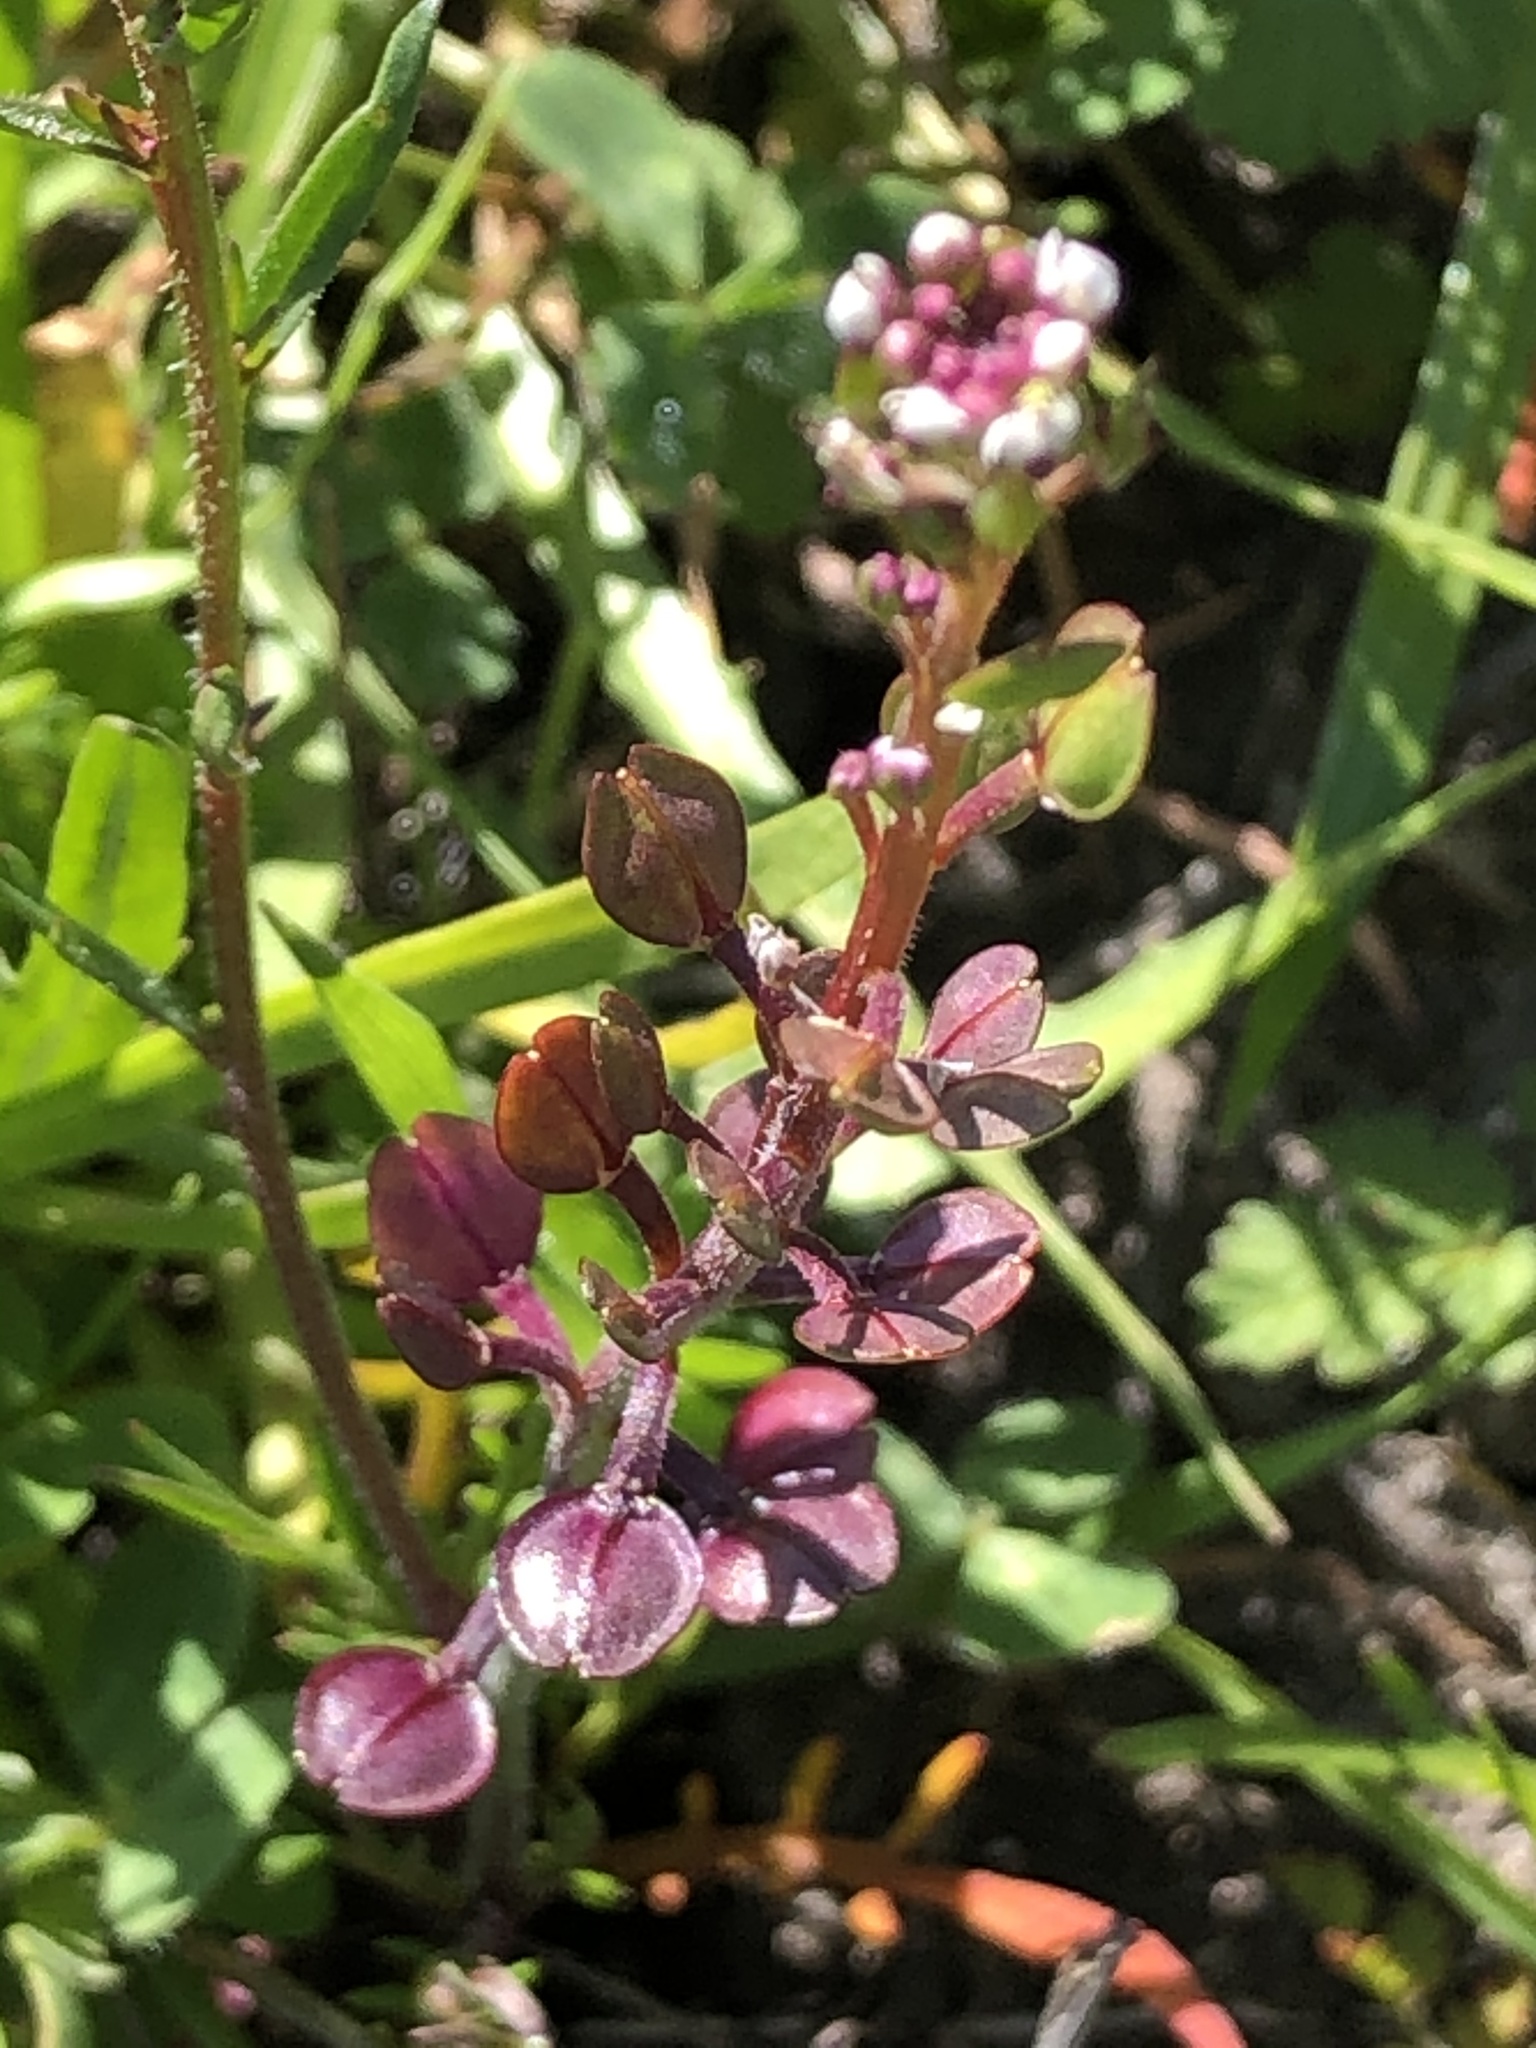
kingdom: Plantae
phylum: Tracheophyta
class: Magnoliopsida
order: Brassicales
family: Brassicaceae
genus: Lepidium
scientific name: Lepidium nitidum
